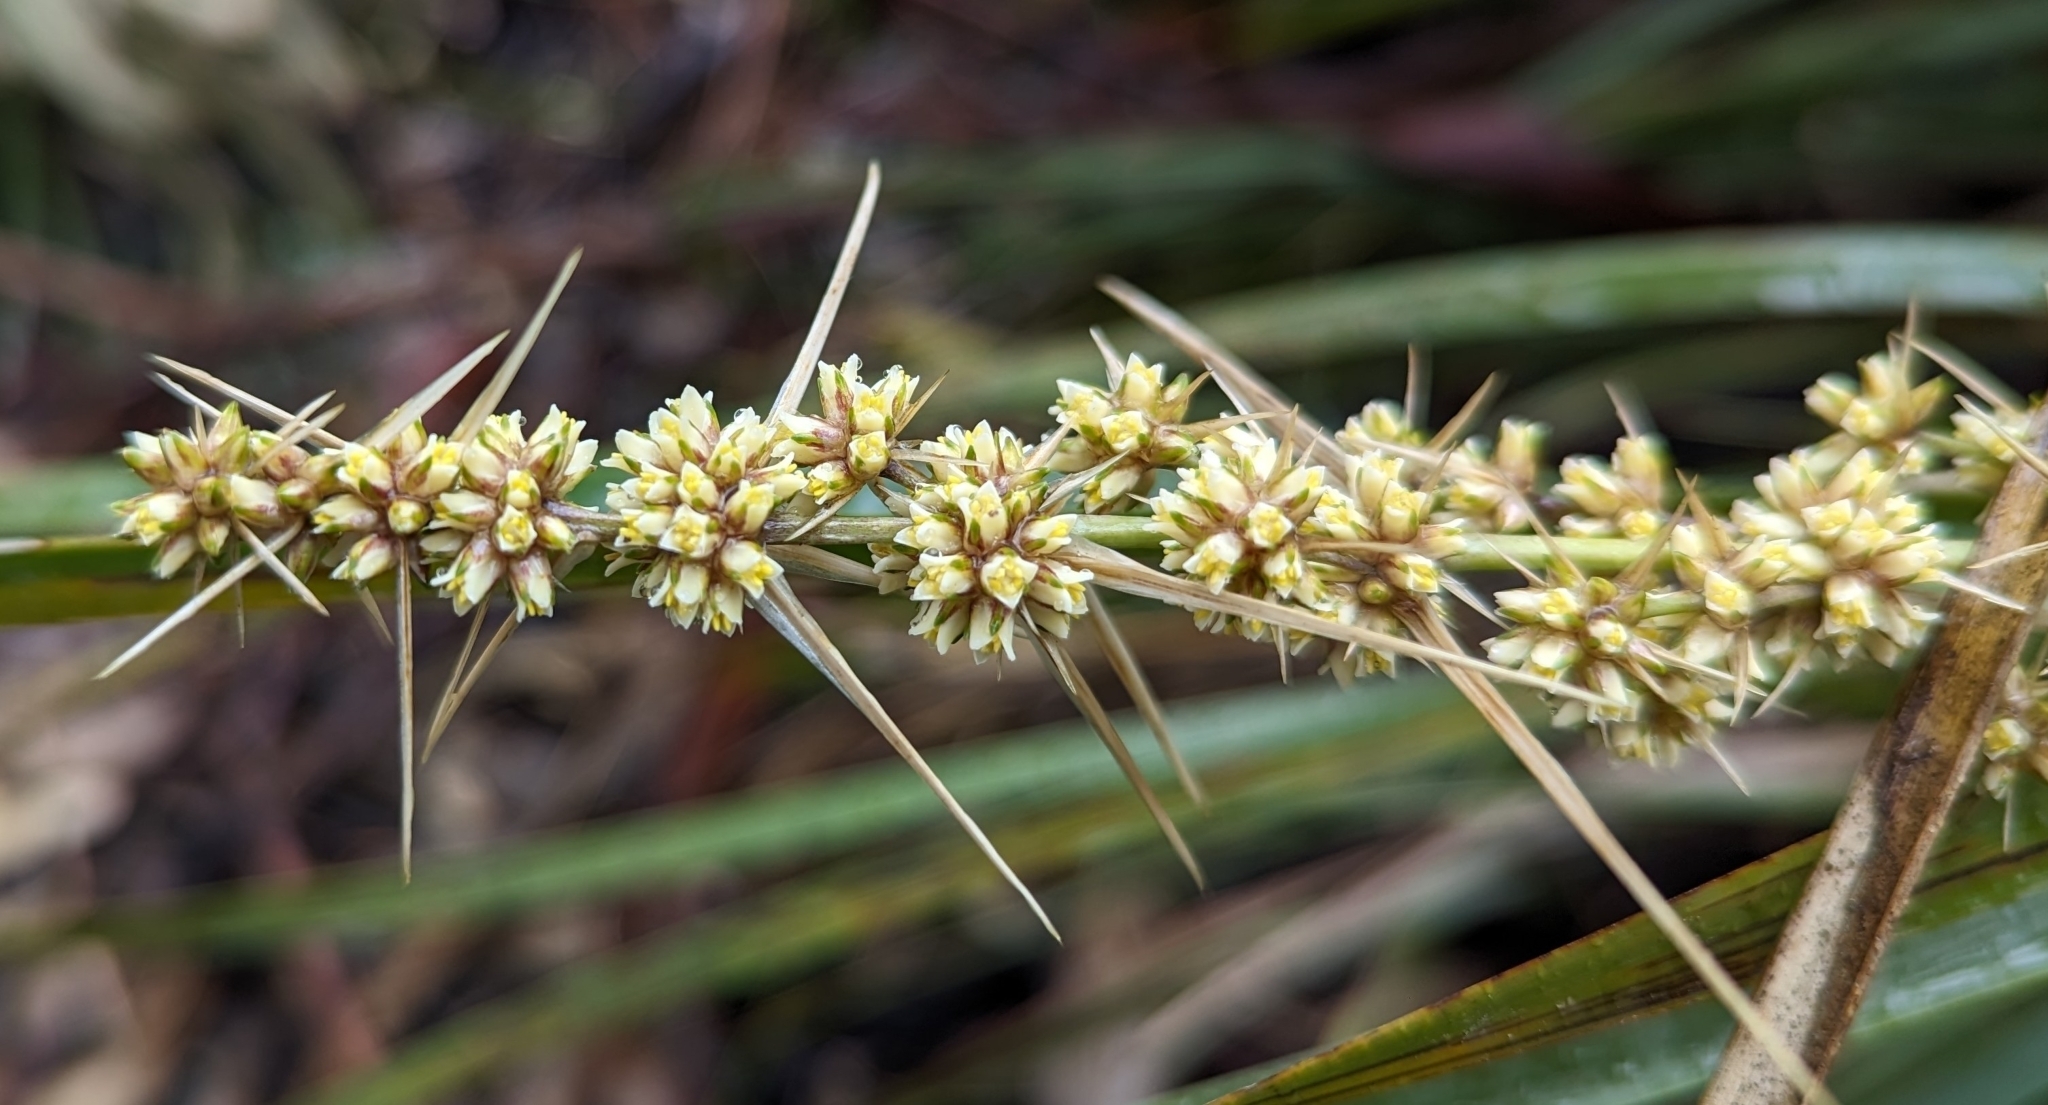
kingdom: Plantae
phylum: Tracheophyta
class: Liliopsida
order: Asparagales
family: Asparagaceae
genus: Lomandra
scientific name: Lomandra longifolia
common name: Longleaf mat-rush
